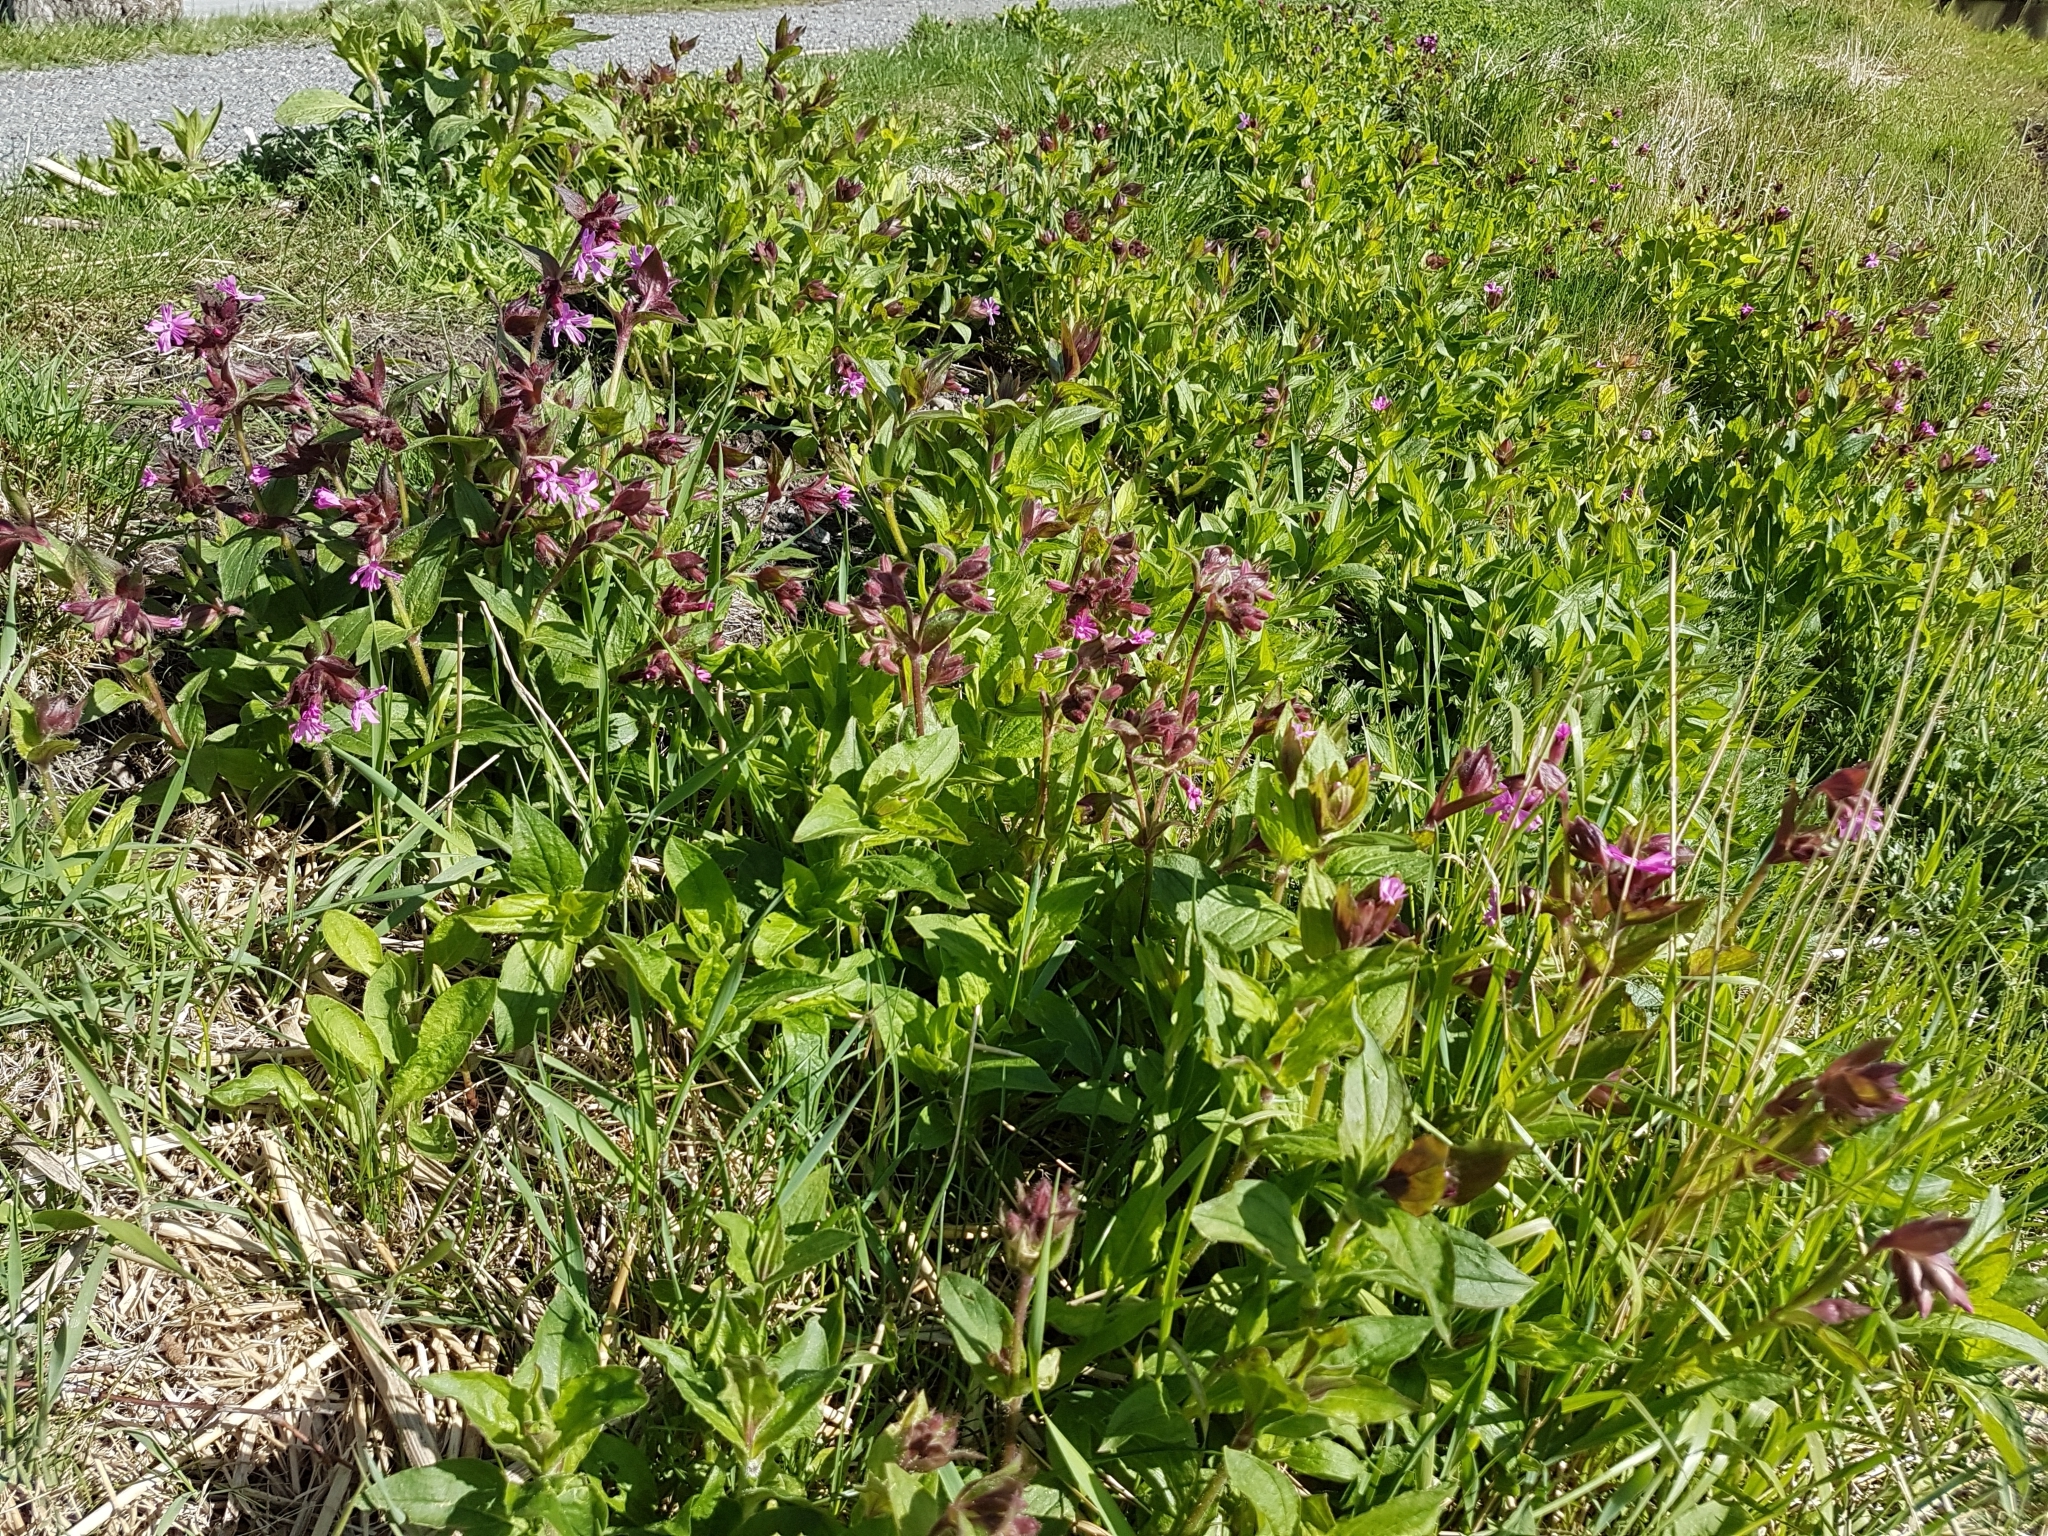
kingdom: Plantae
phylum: Tracheophyta
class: Magnoliopsida
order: Caryophyllales
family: Caryophyllaceae
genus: Silene
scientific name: Silene dioica
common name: Red campion
